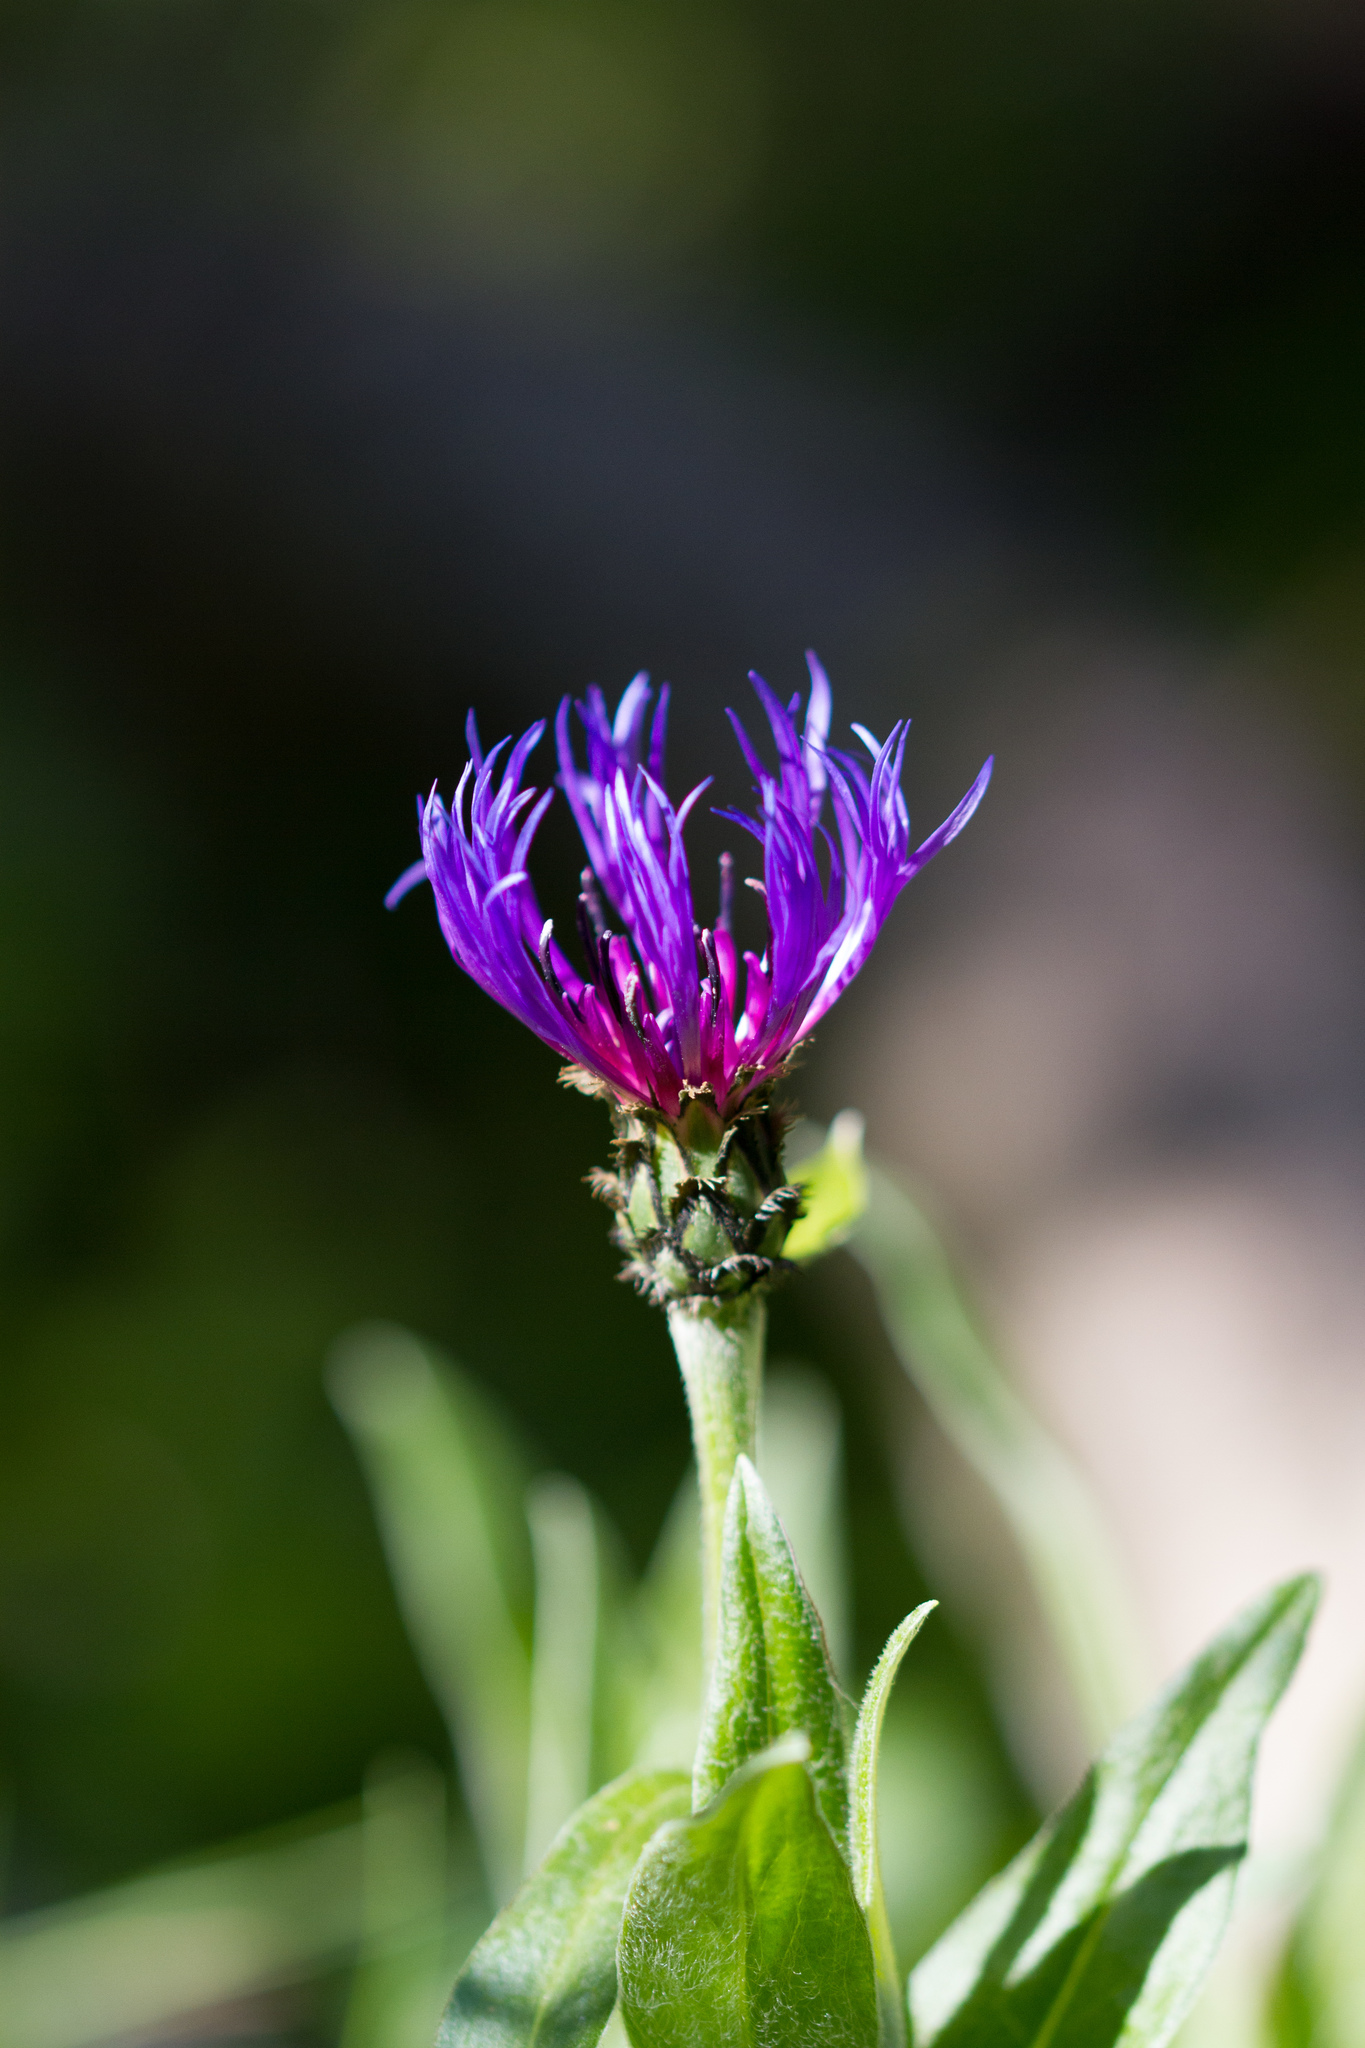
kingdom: Plantae
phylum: Tracheophyta
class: Magnoliopsida
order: Asterales
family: Asteraceae
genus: Centaurea
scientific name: Centaurea montana
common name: Perennial cornflower
